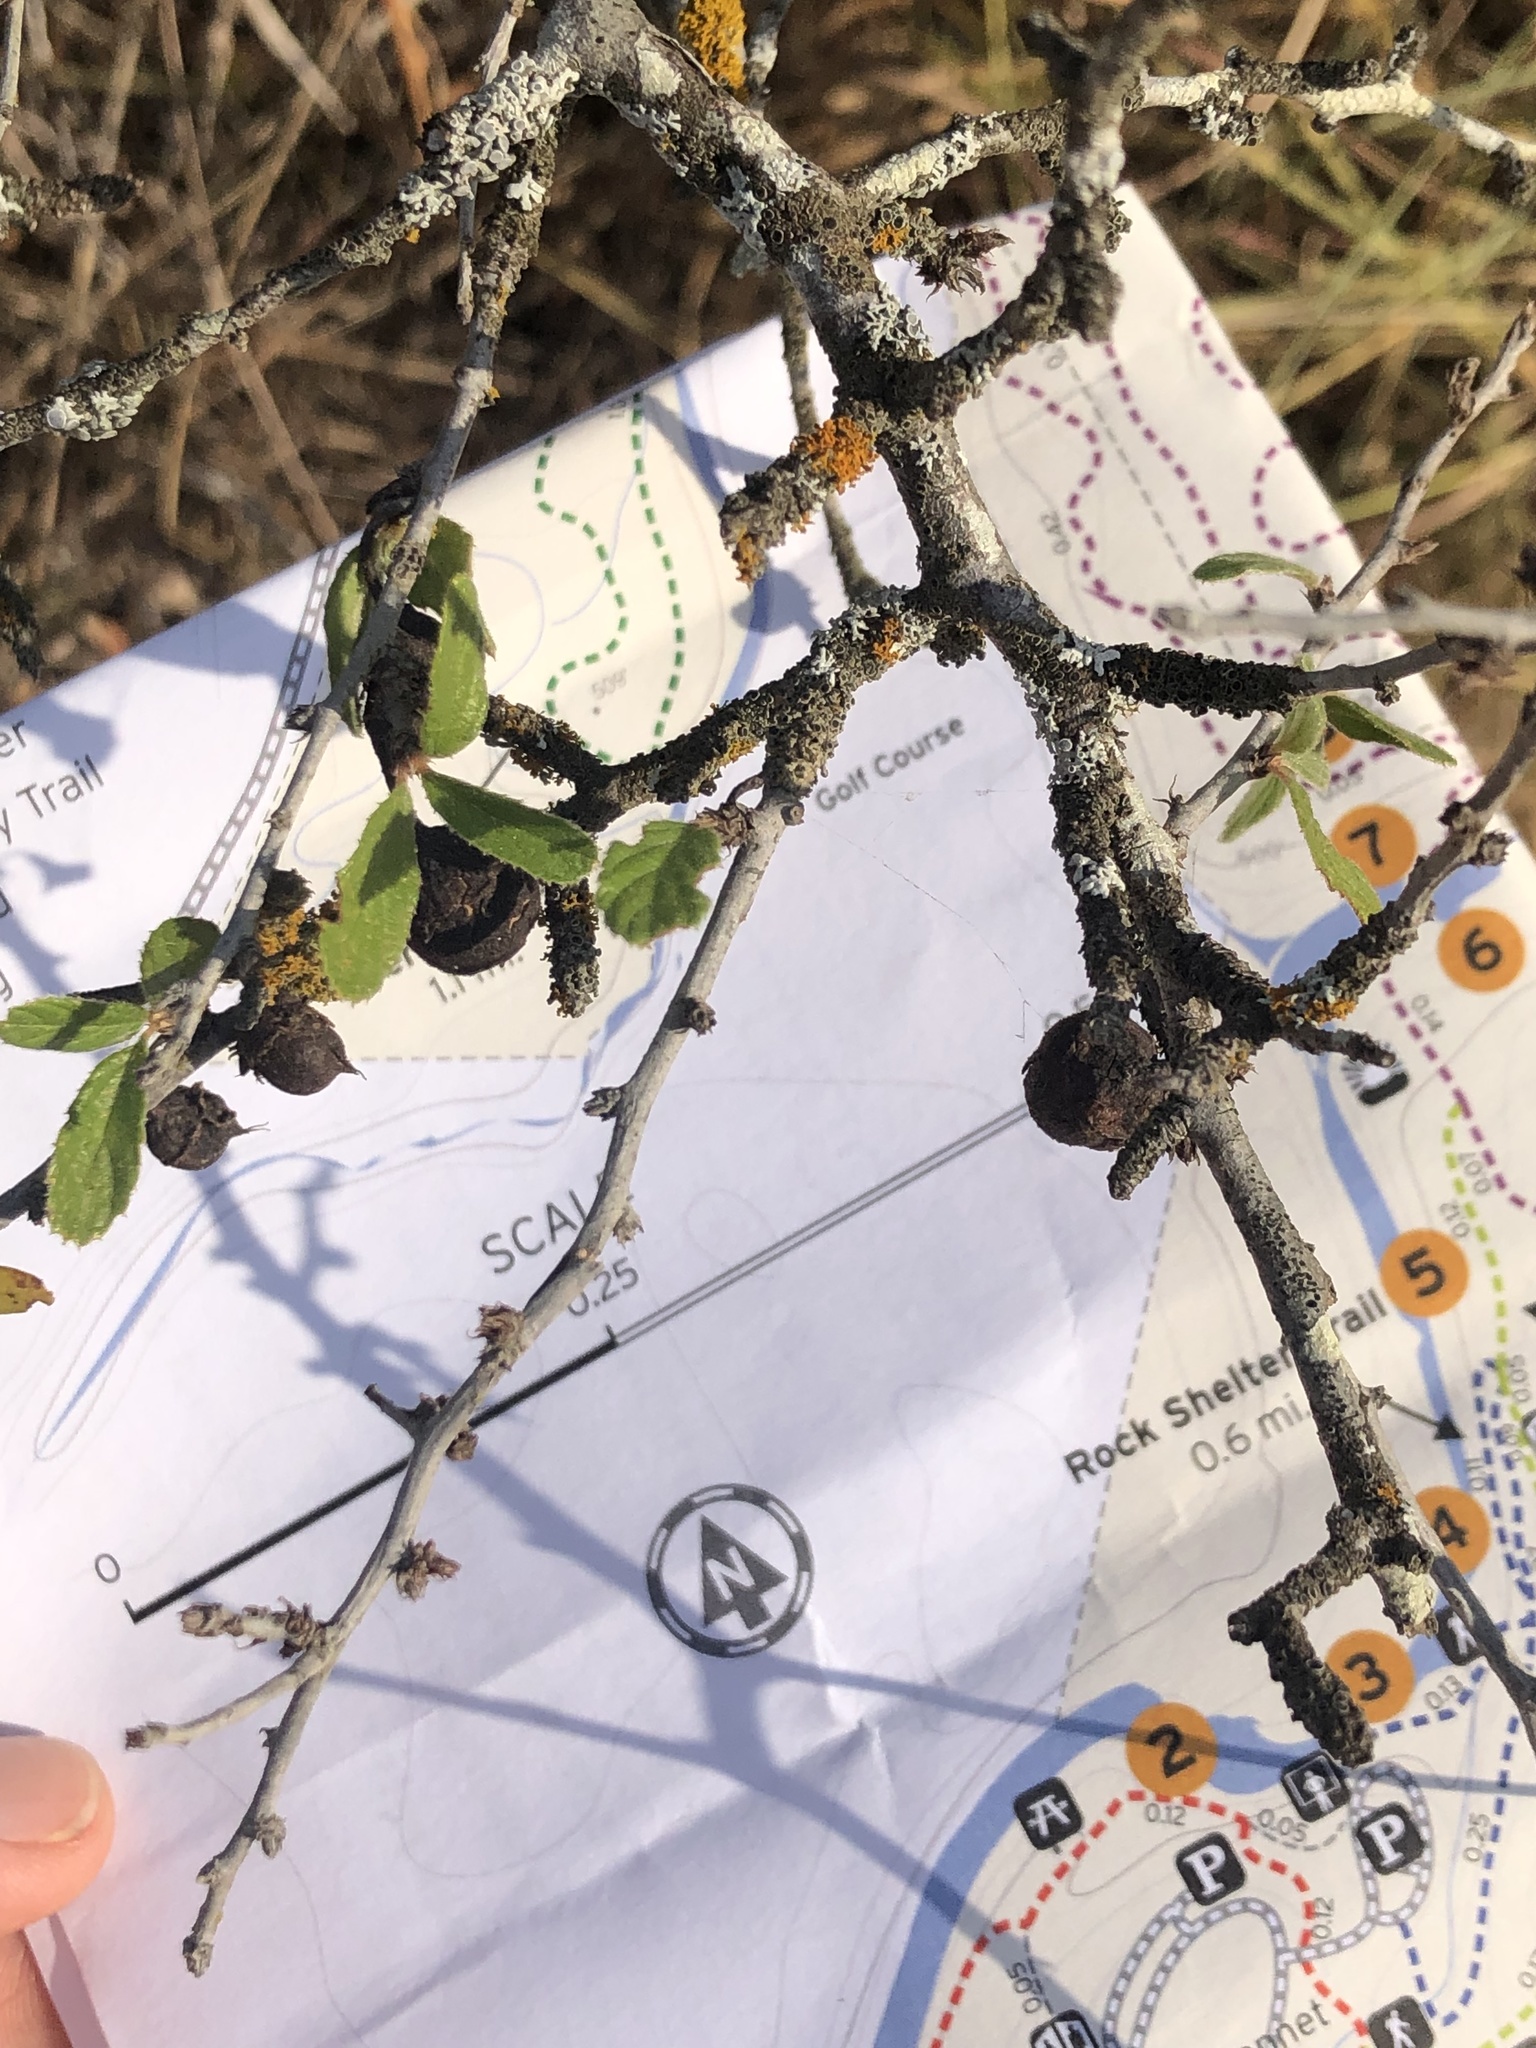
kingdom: Plantae
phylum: Tracheophyta
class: Magnoliopsida
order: Rosales
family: Rhamnaceae
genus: Colubrina
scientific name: Colubrina texensis
